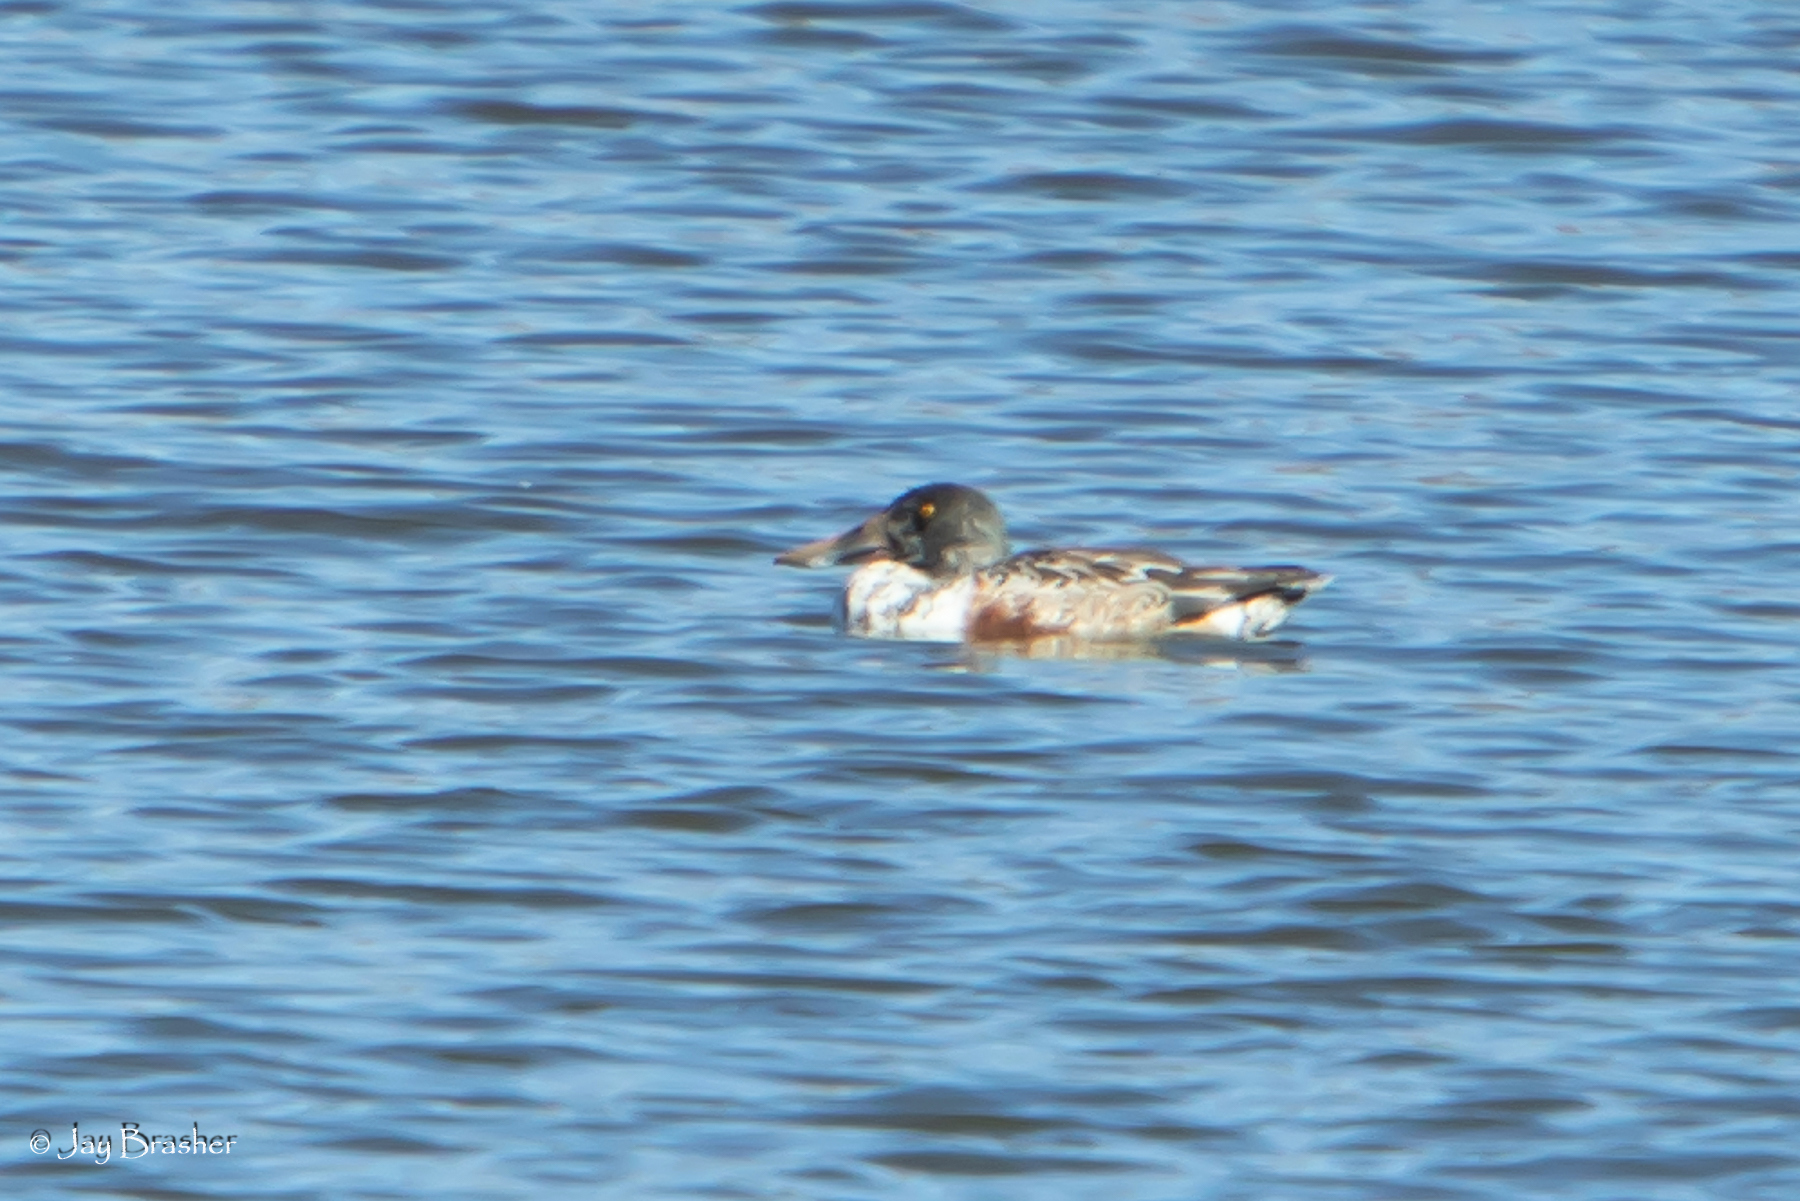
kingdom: Animalia
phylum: Chordata
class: Aves
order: Anseriformes
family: Anatidae
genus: Spatula
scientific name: Spatula clypeata
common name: Northern shoveler
